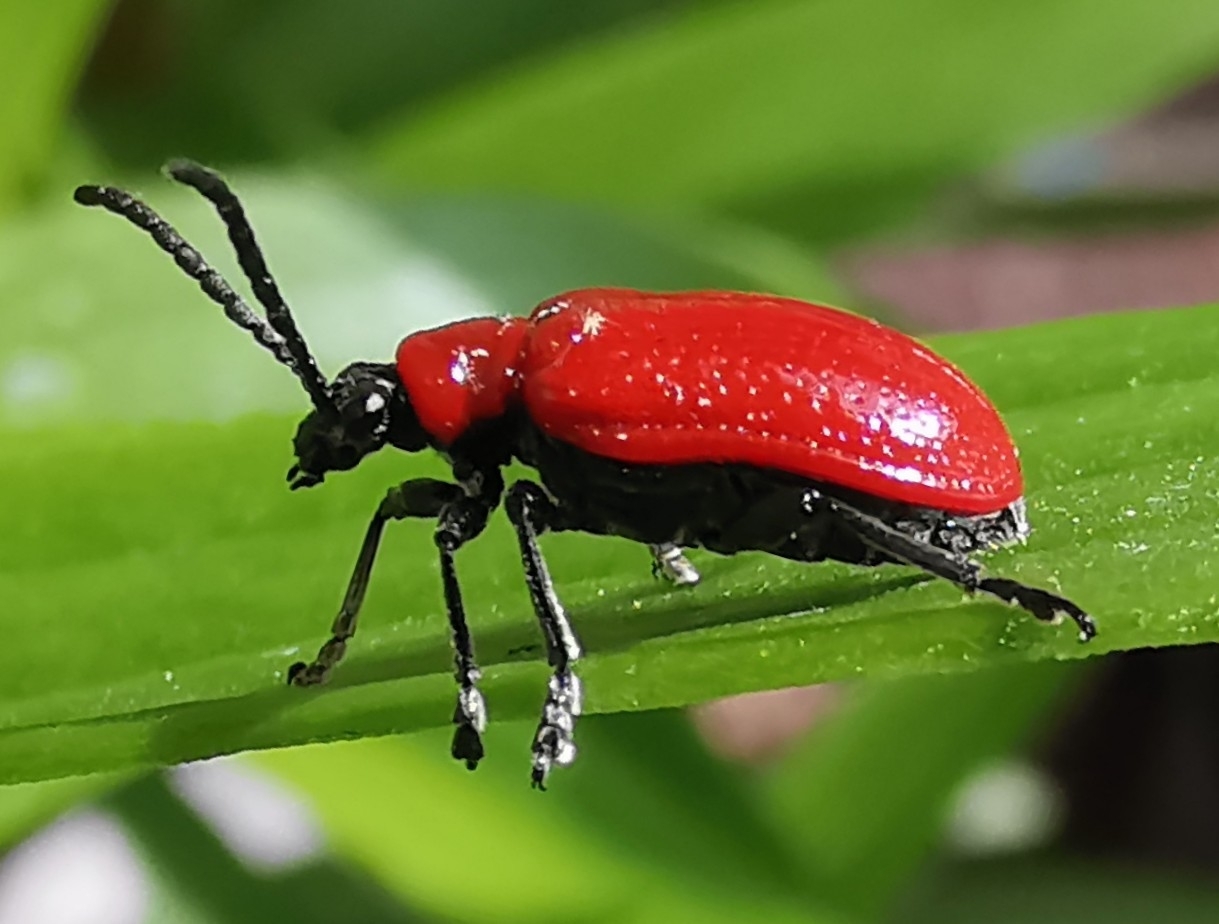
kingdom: Animalia
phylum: Arthropoda
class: Insecta
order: Coleoptera
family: Chrysomelidae
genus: Lilioceris
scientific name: Lilioceris lilii
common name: Lily beetle
